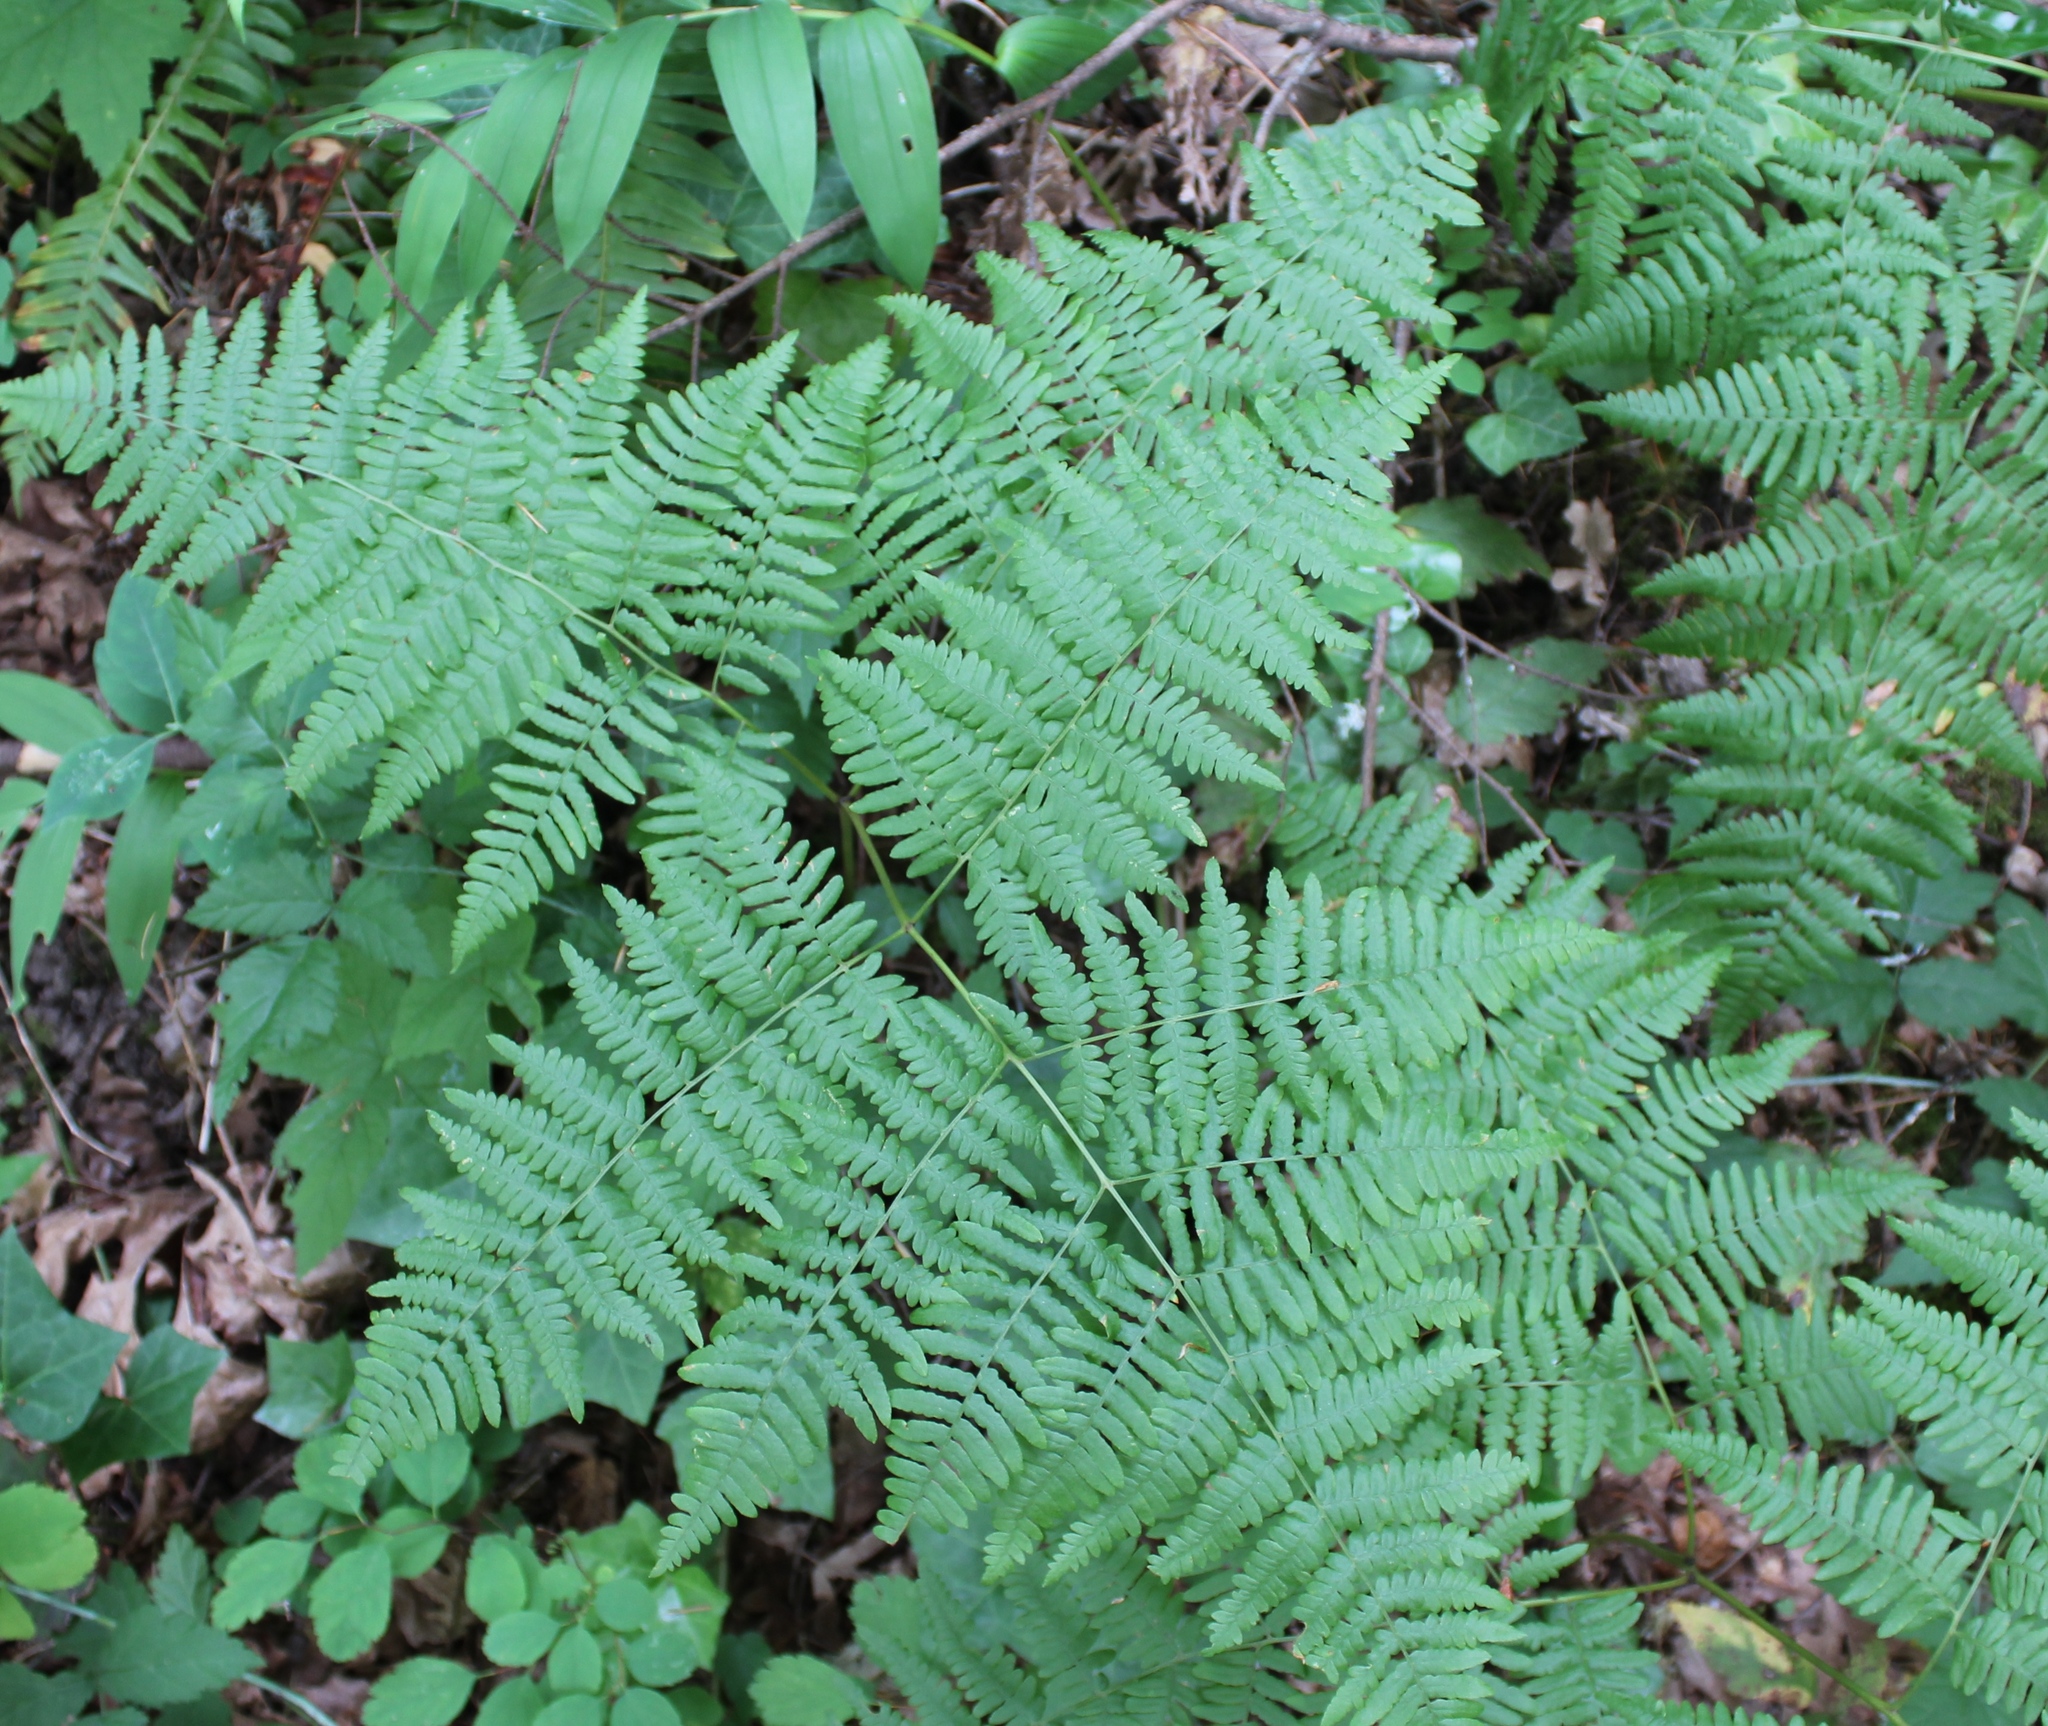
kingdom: Plantae
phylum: Tracheophyta
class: Polypodiopsida
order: Polypodiales
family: Dennstaedtiaceae
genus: Pteridium
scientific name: Pteridium aquilinum
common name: Bracken
